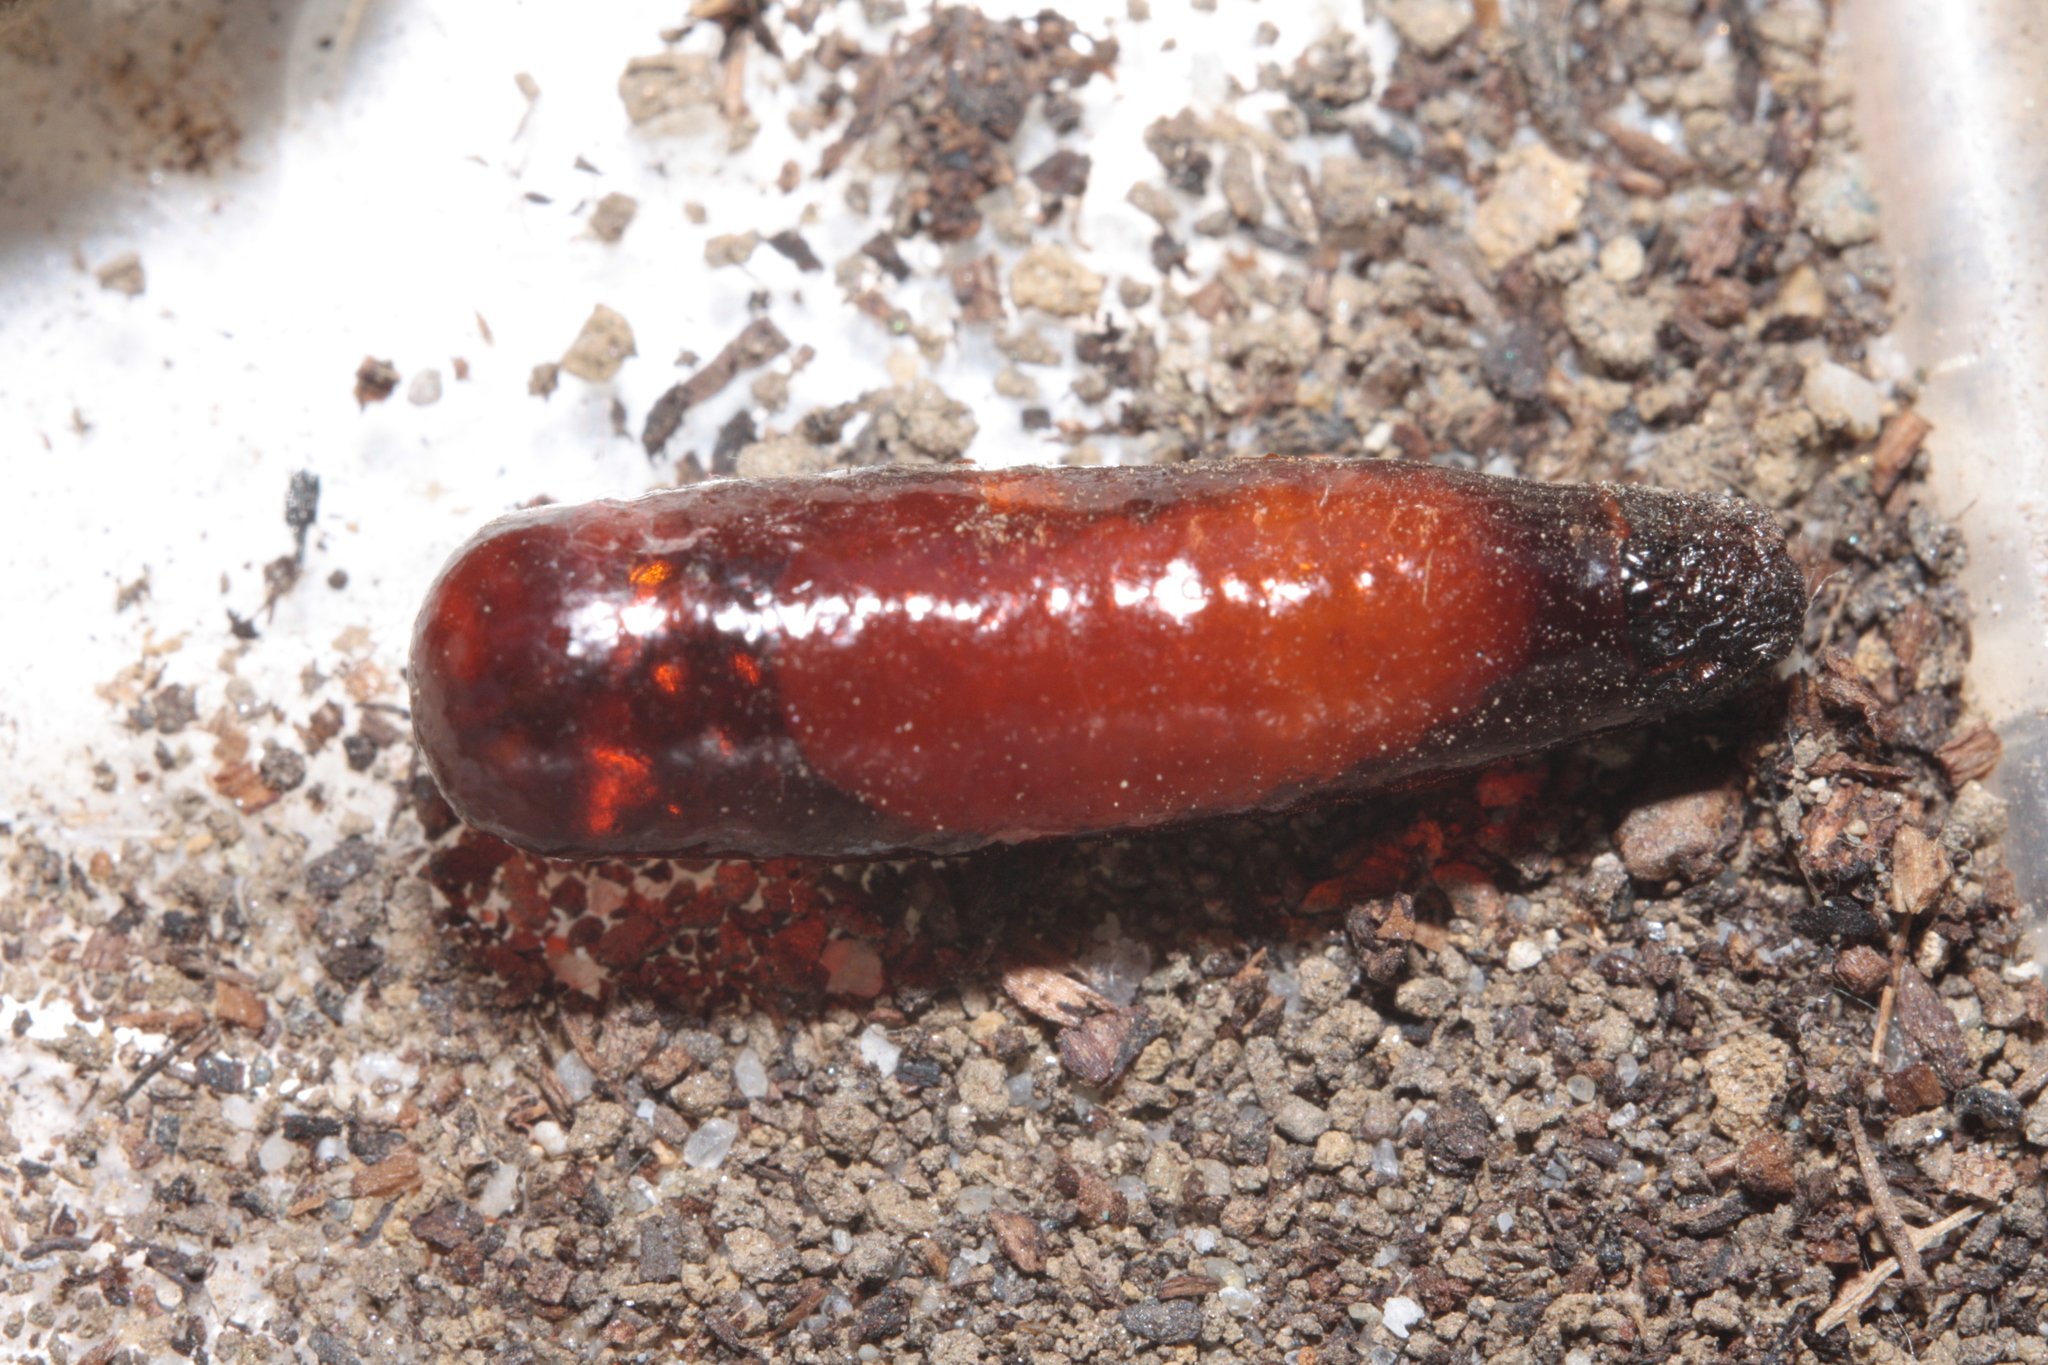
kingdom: Animalia
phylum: Arthropoda
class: Insecta
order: Hymenoptera
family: Sphecidae
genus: Sceliphron
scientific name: Sceliphron
